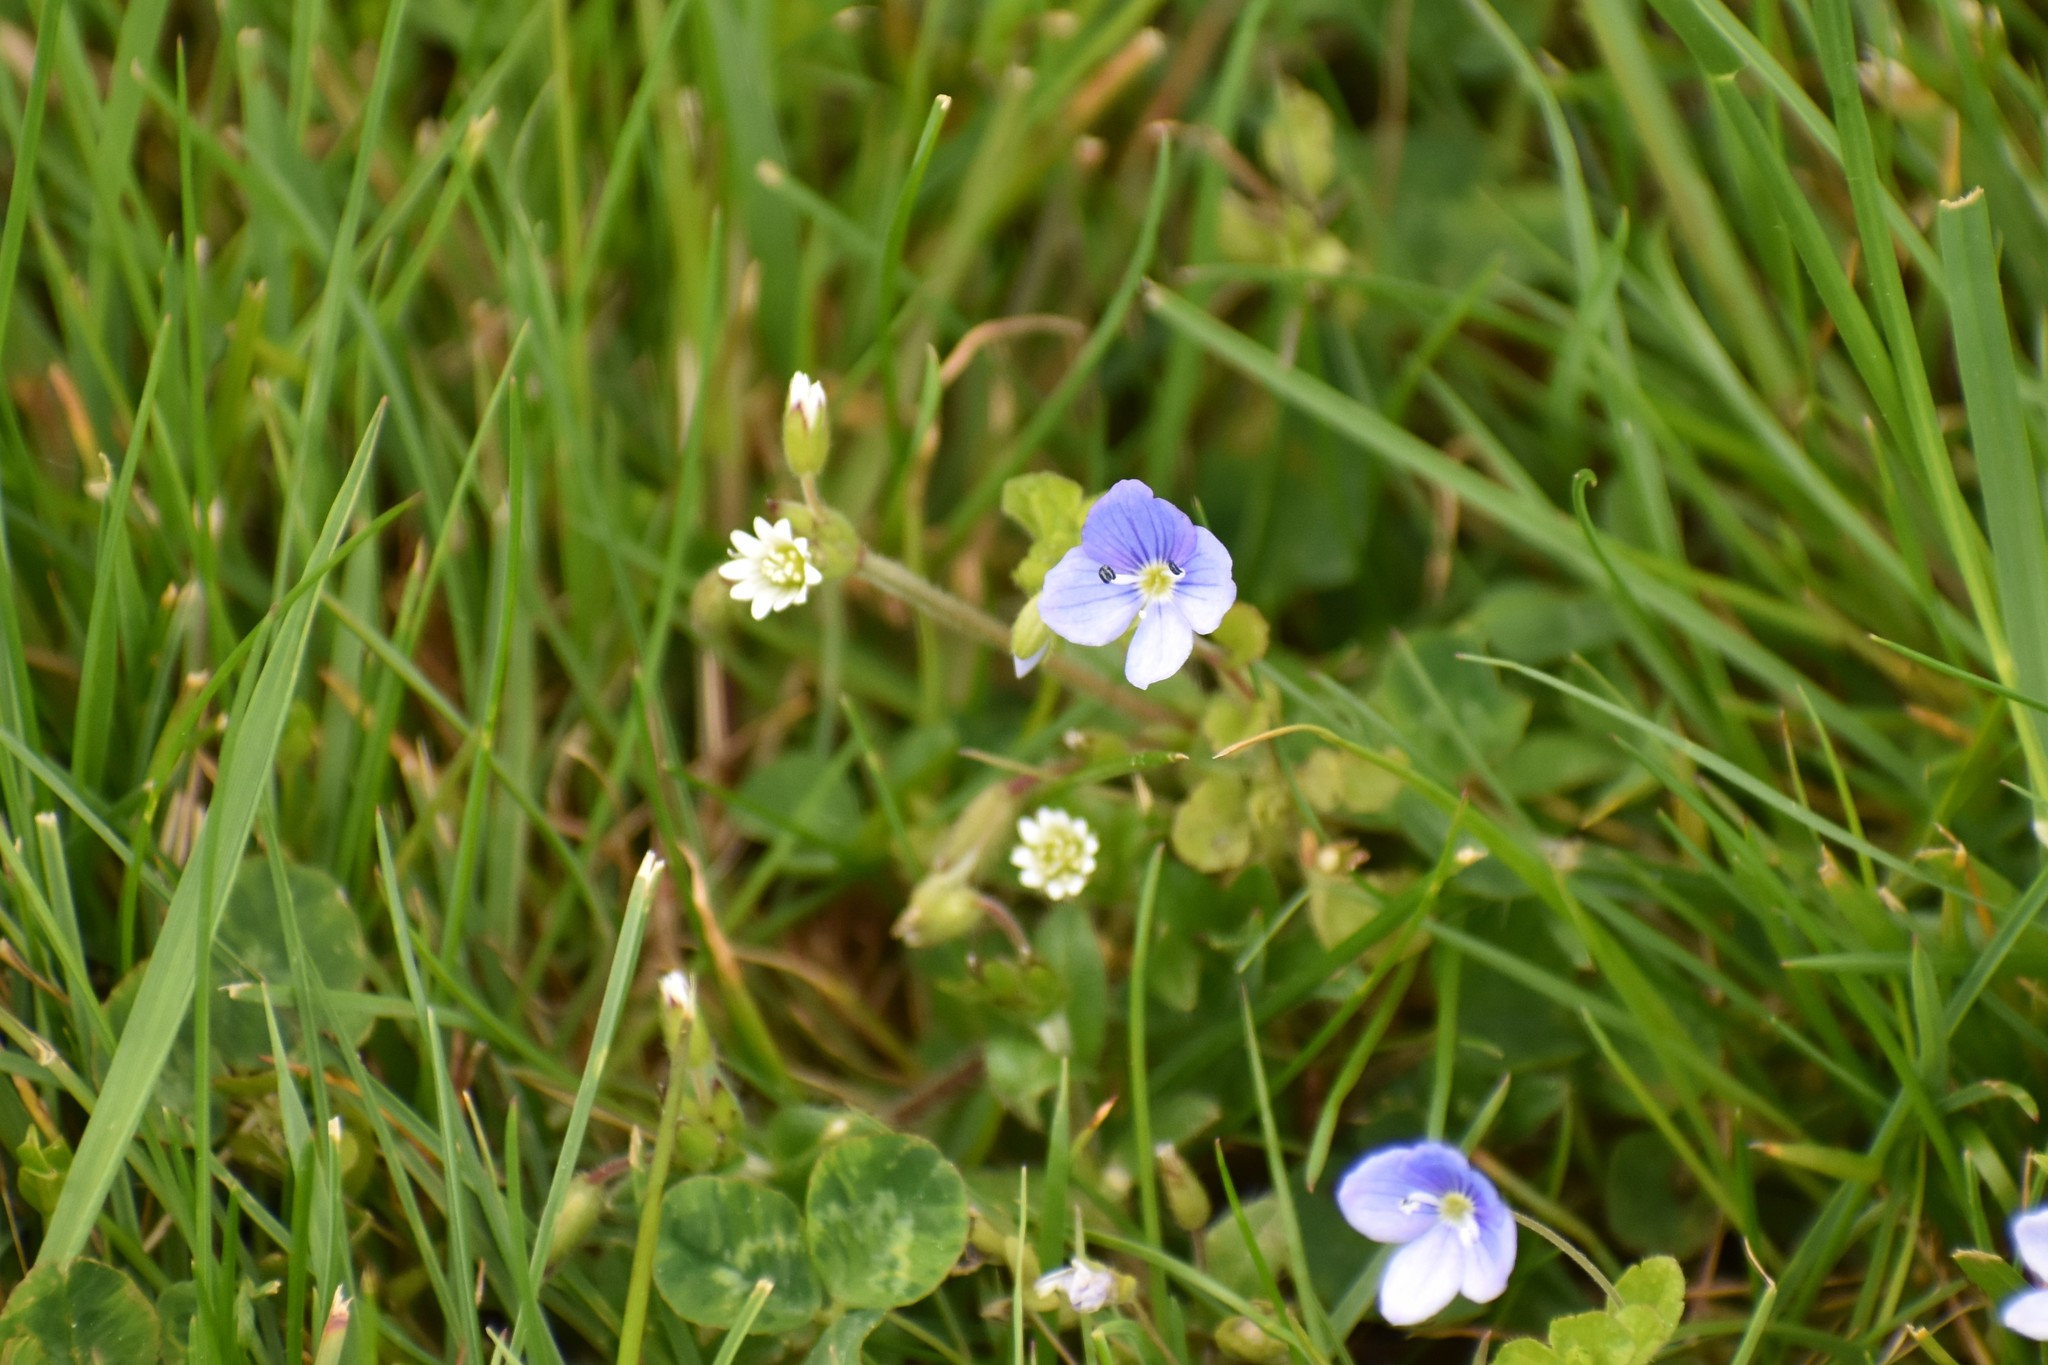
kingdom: Plantae
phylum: Tracheophyta
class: Magnoliopsida
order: Lamiales
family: Plantaginaceae
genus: Veronica
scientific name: Veronica filiformis
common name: Slender speedwell
